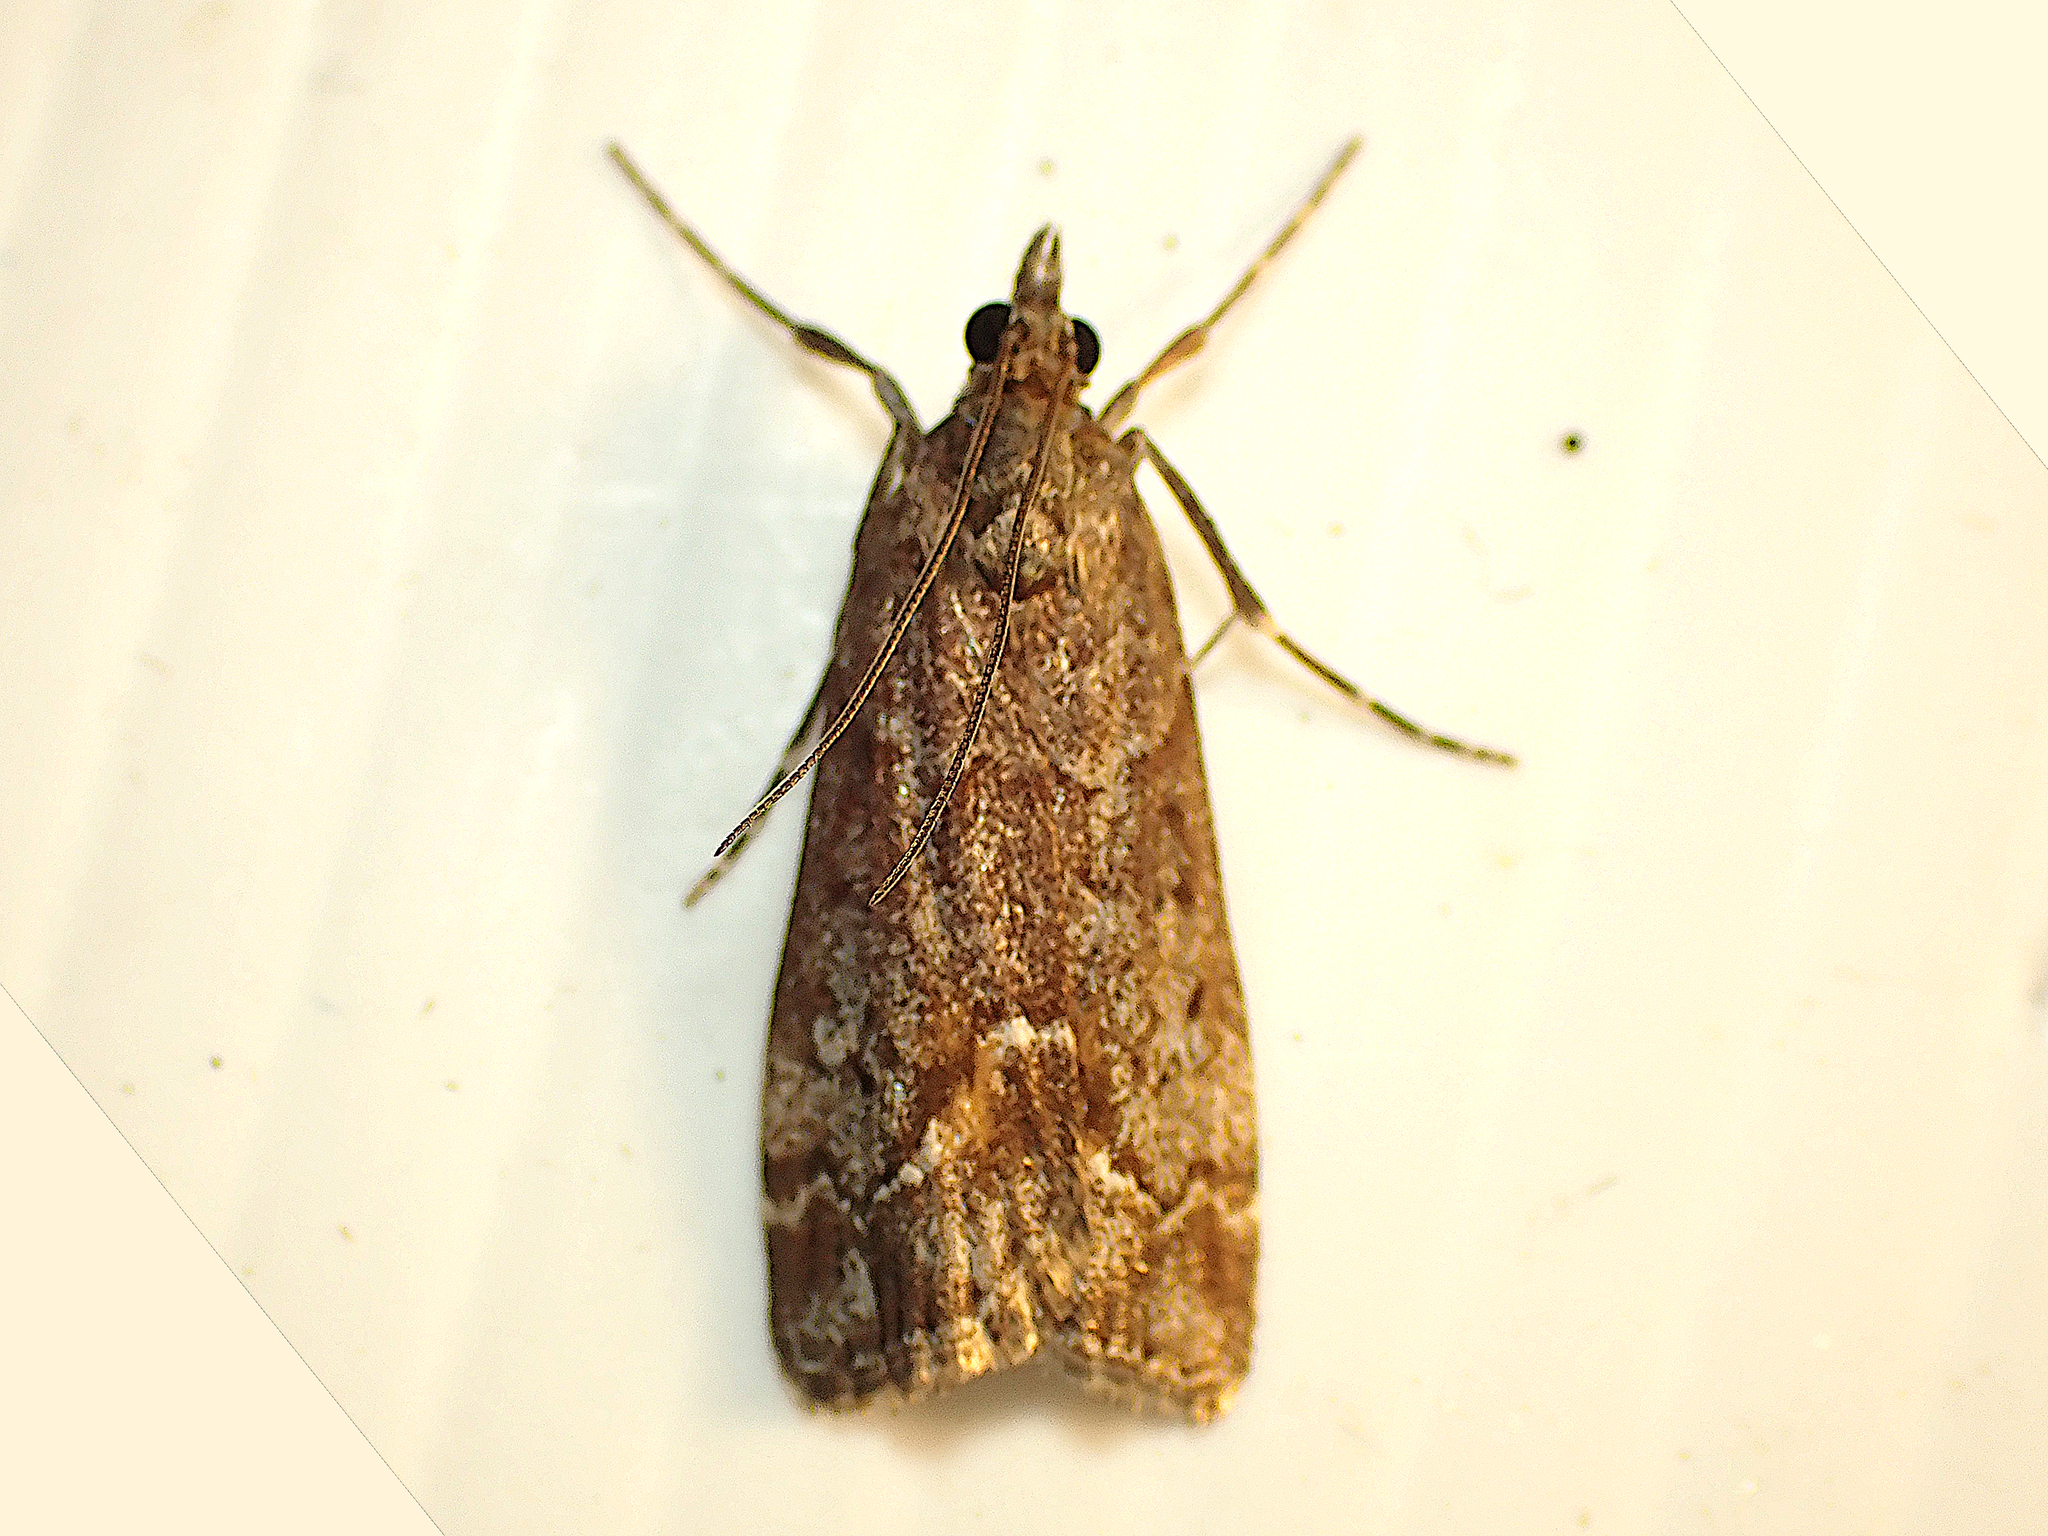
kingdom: Animalia
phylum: Arthropoda
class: Insecta
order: Lepidoptera
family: Crambidae
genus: Eudonia
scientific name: Eudonia submarginalis
